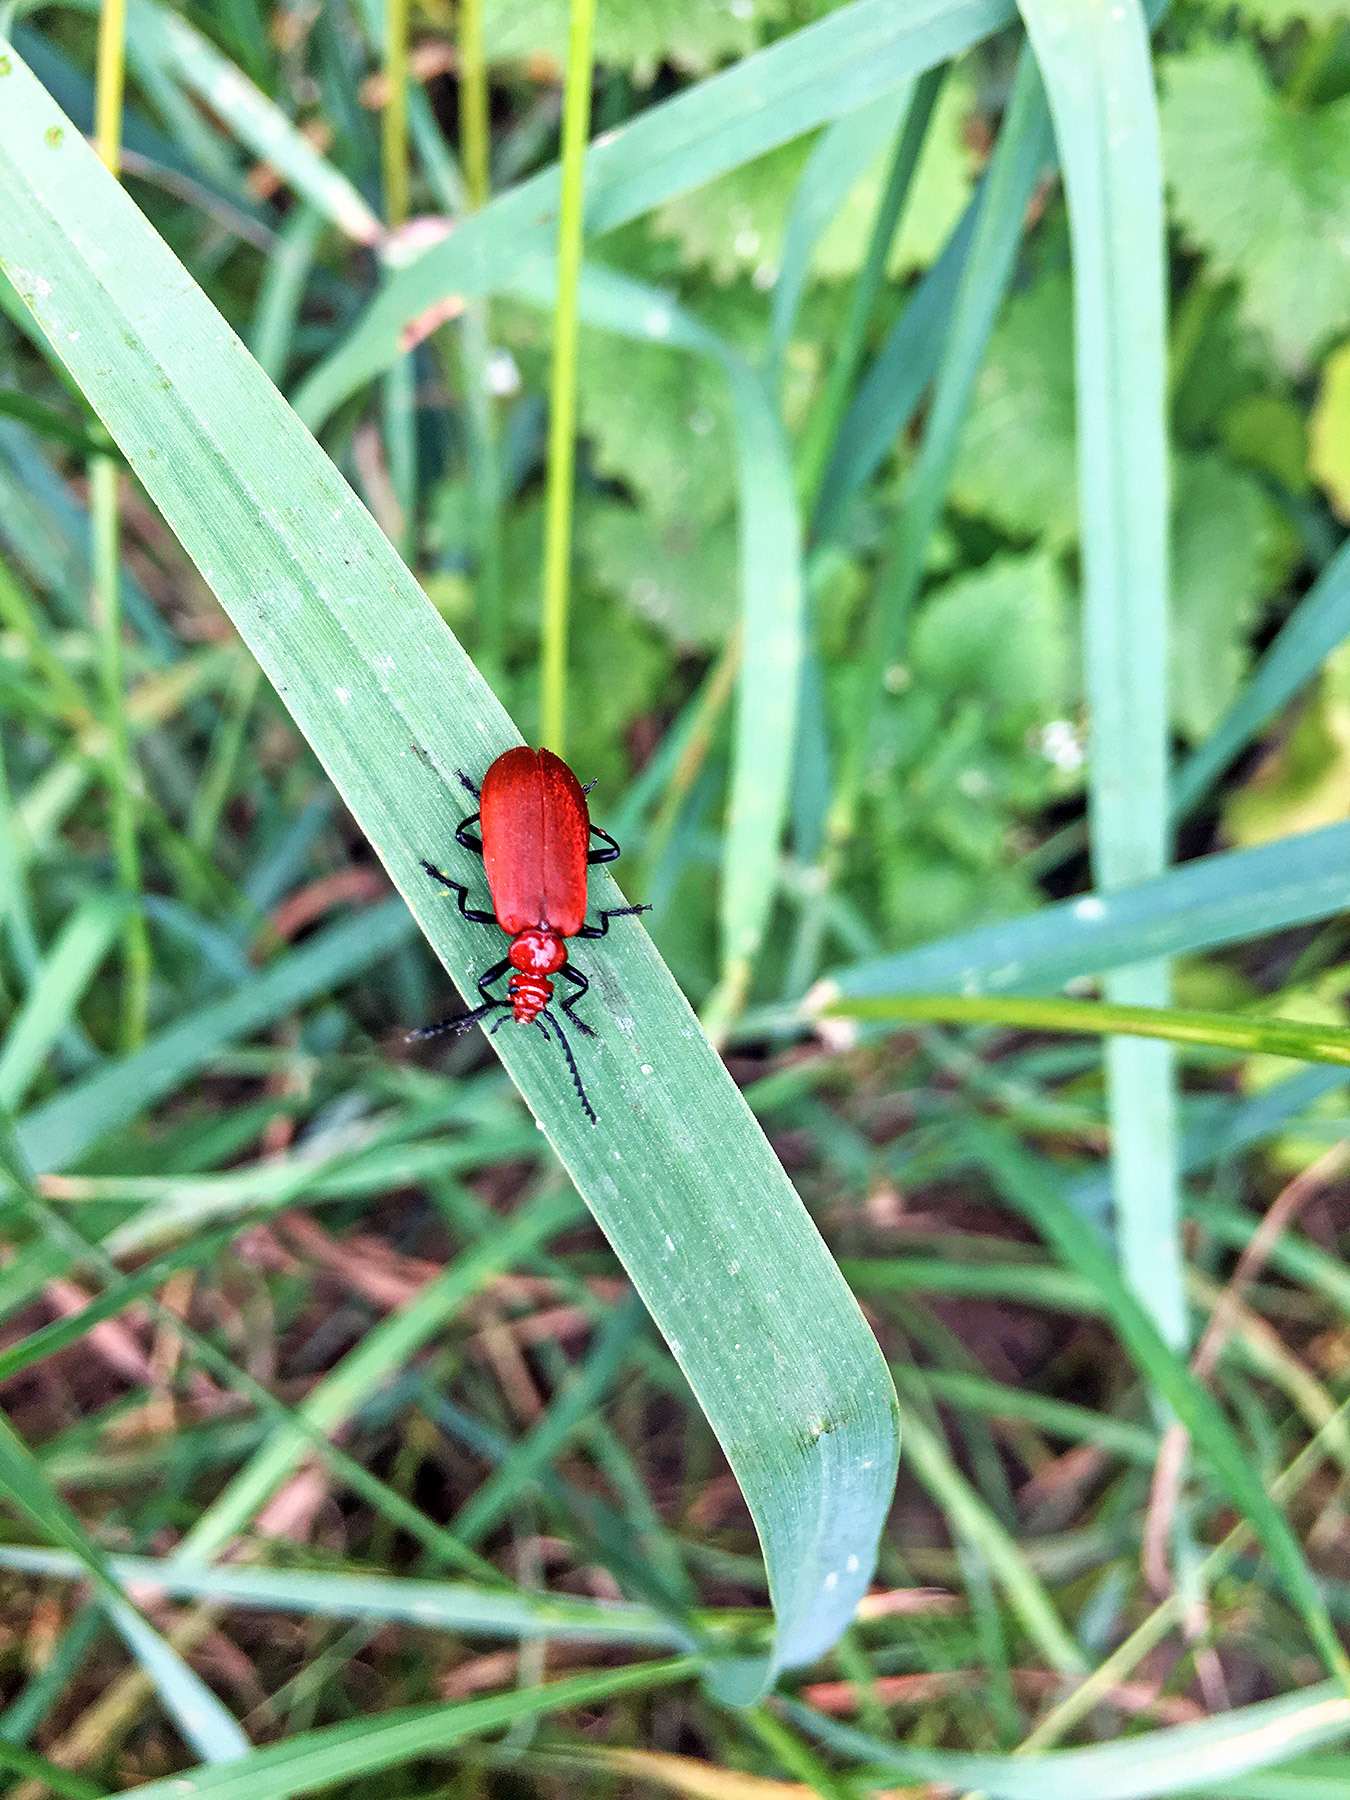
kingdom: Animalia
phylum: Arthropoda
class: Insecta
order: Coleoptera
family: Pyrochroidae
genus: Pyrochroa
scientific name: Pyrochroa serraticornis
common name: Red-headed cardinal beetle
